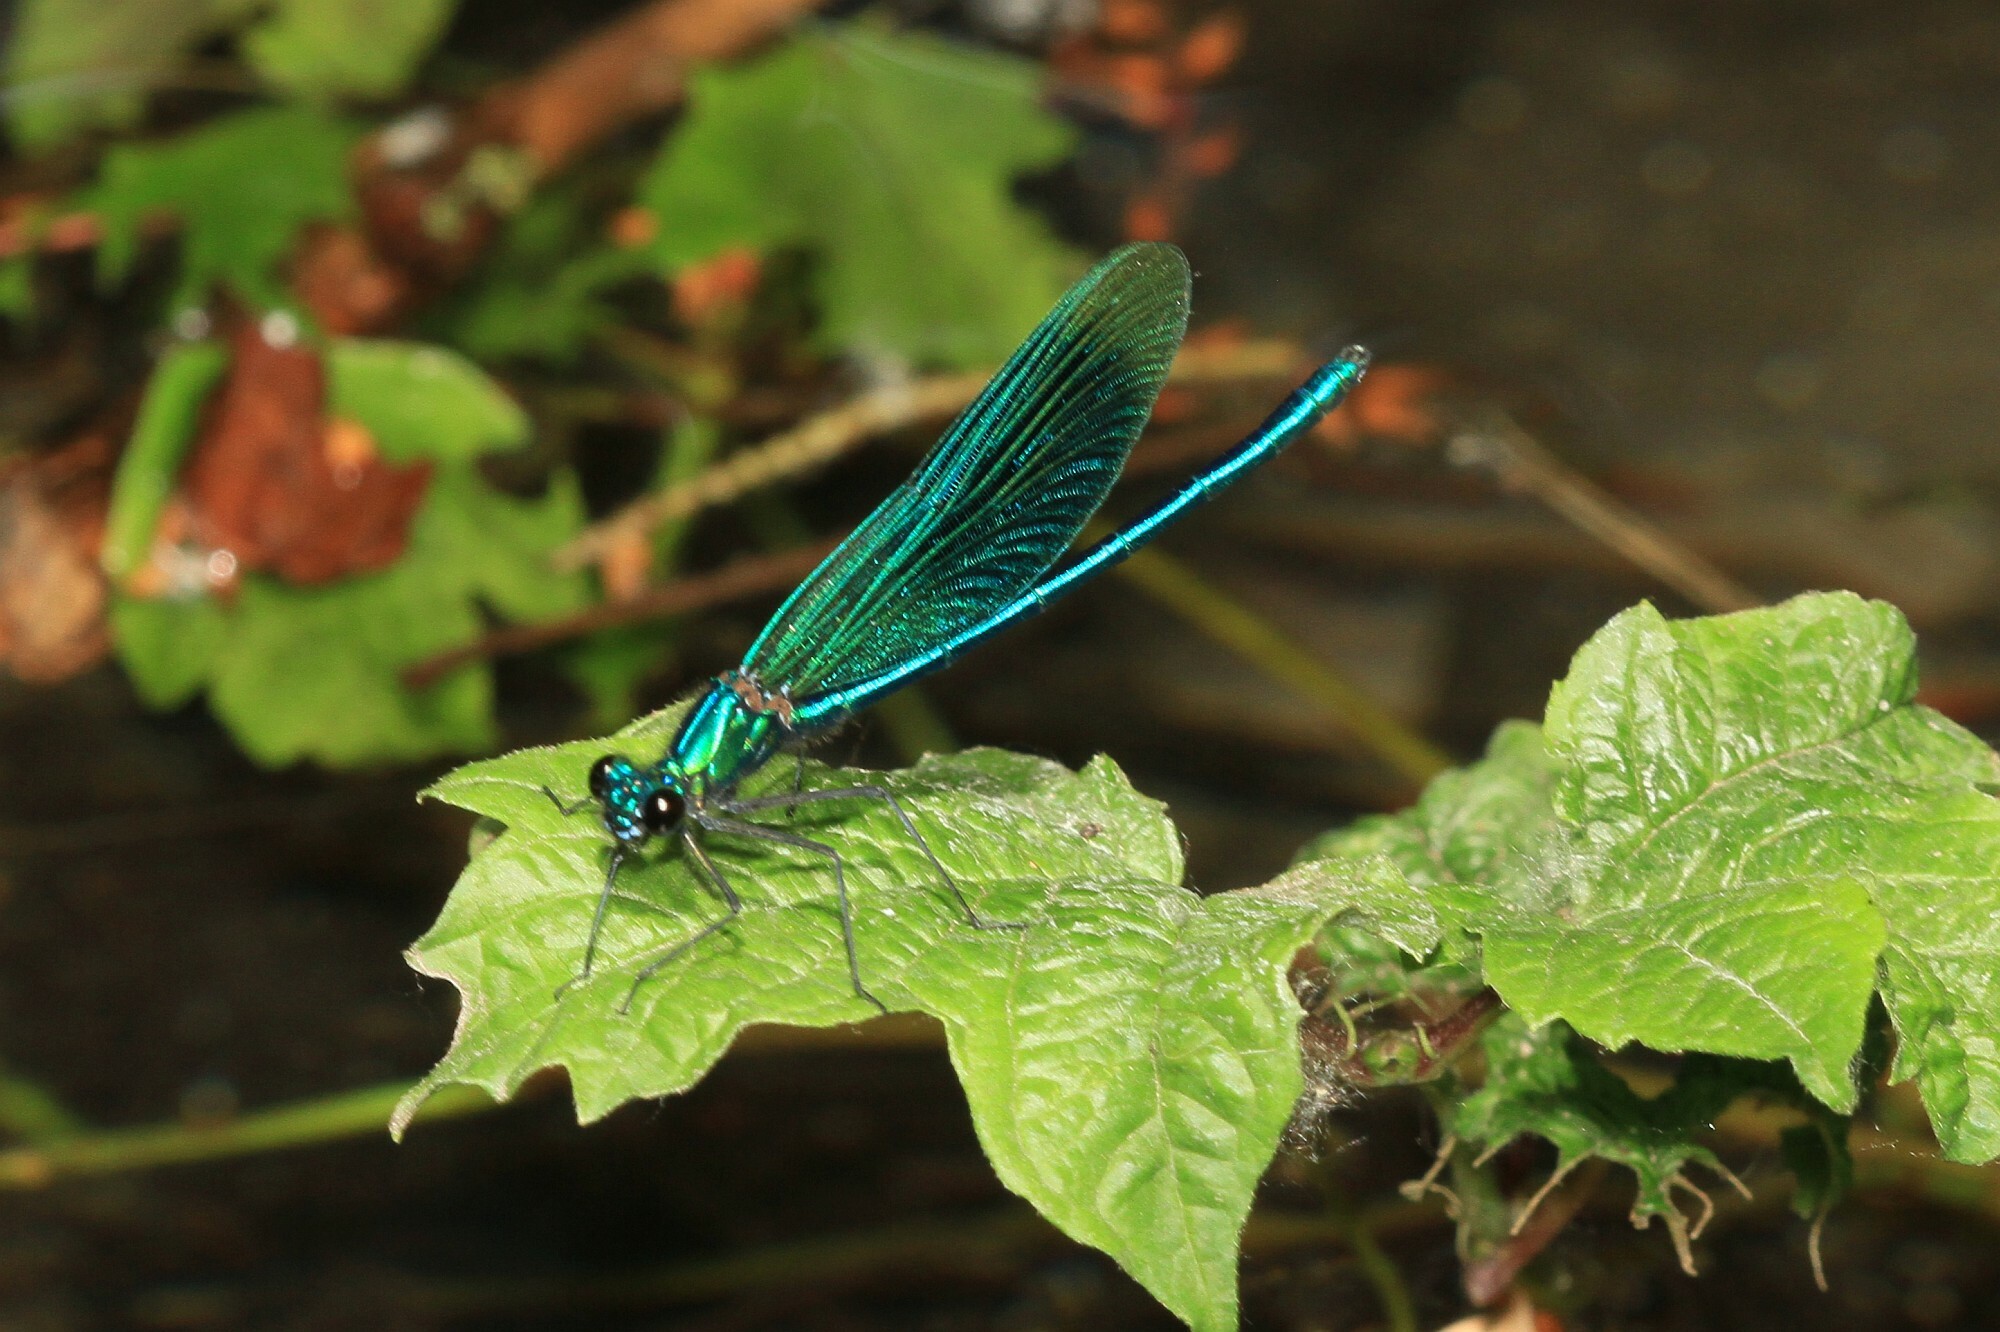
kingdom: Animalia
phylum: Arthropoda
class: Insecta
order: Odonata
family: Calopterygidae
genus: Calopteryx
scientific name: Calopteryx splendens
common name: Banded demoiselle
